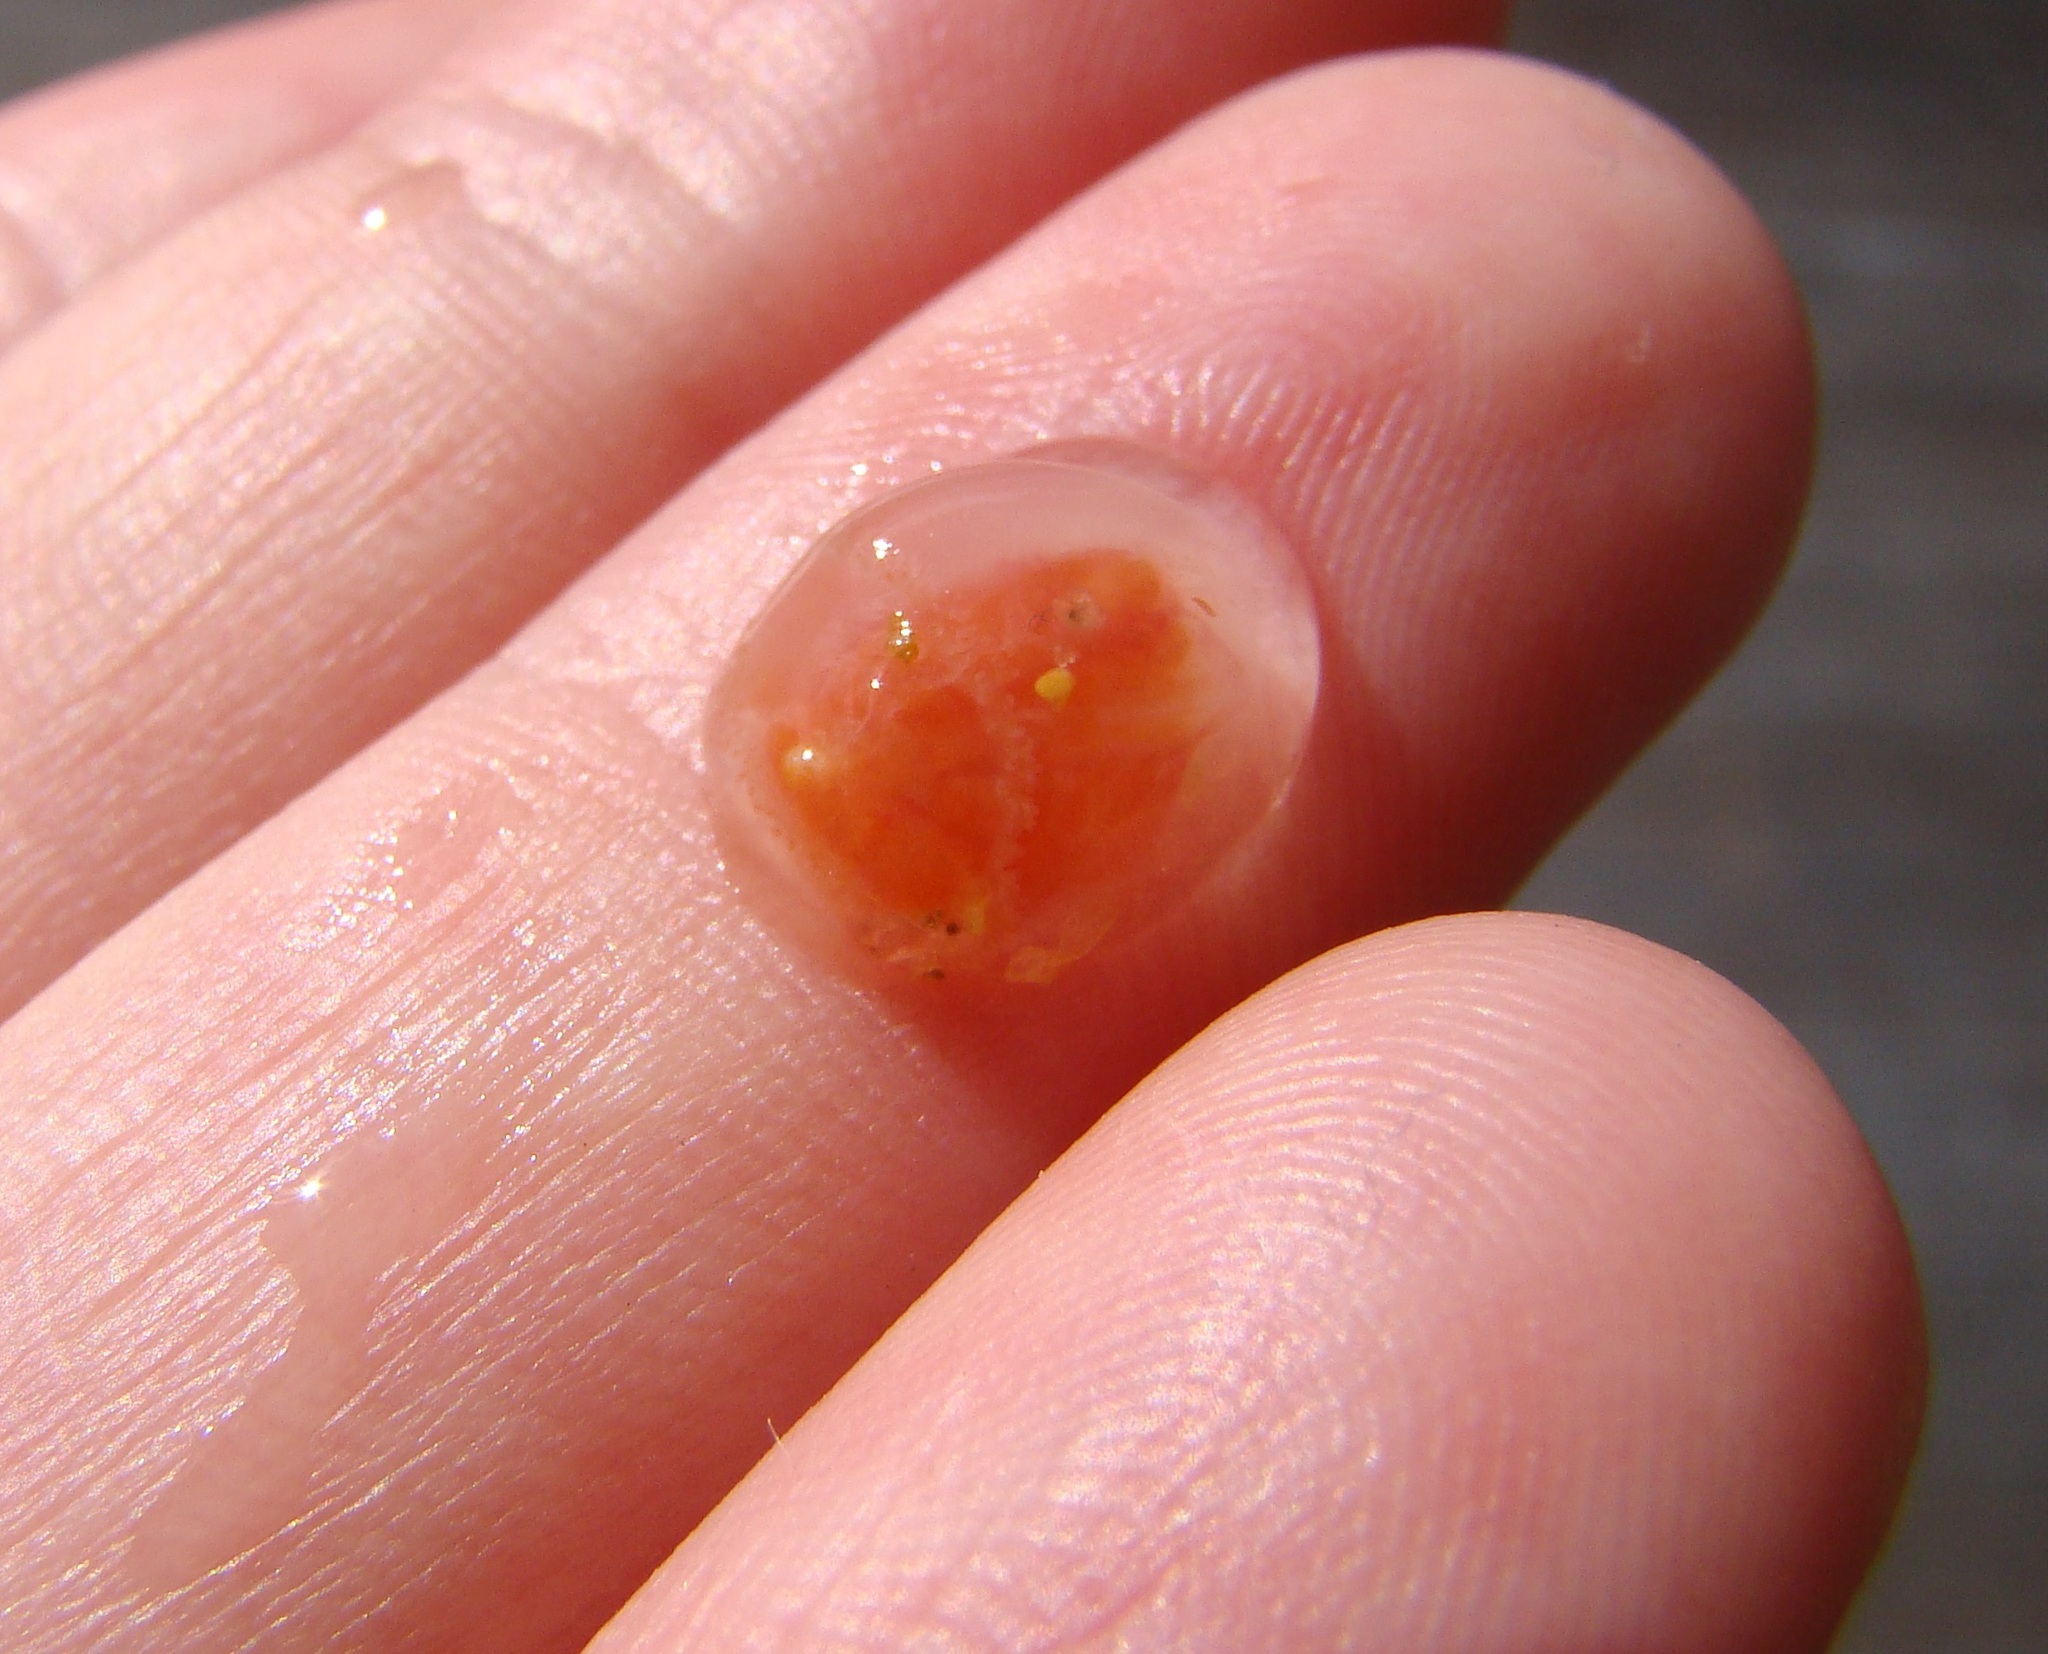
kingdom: Animalia
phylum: Cnidaria
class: Hydrozoa
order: Anthoathecata
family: Oceaniidae
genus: Turritopsis
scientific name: Turritopsis rubra
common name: Crimson jelly
